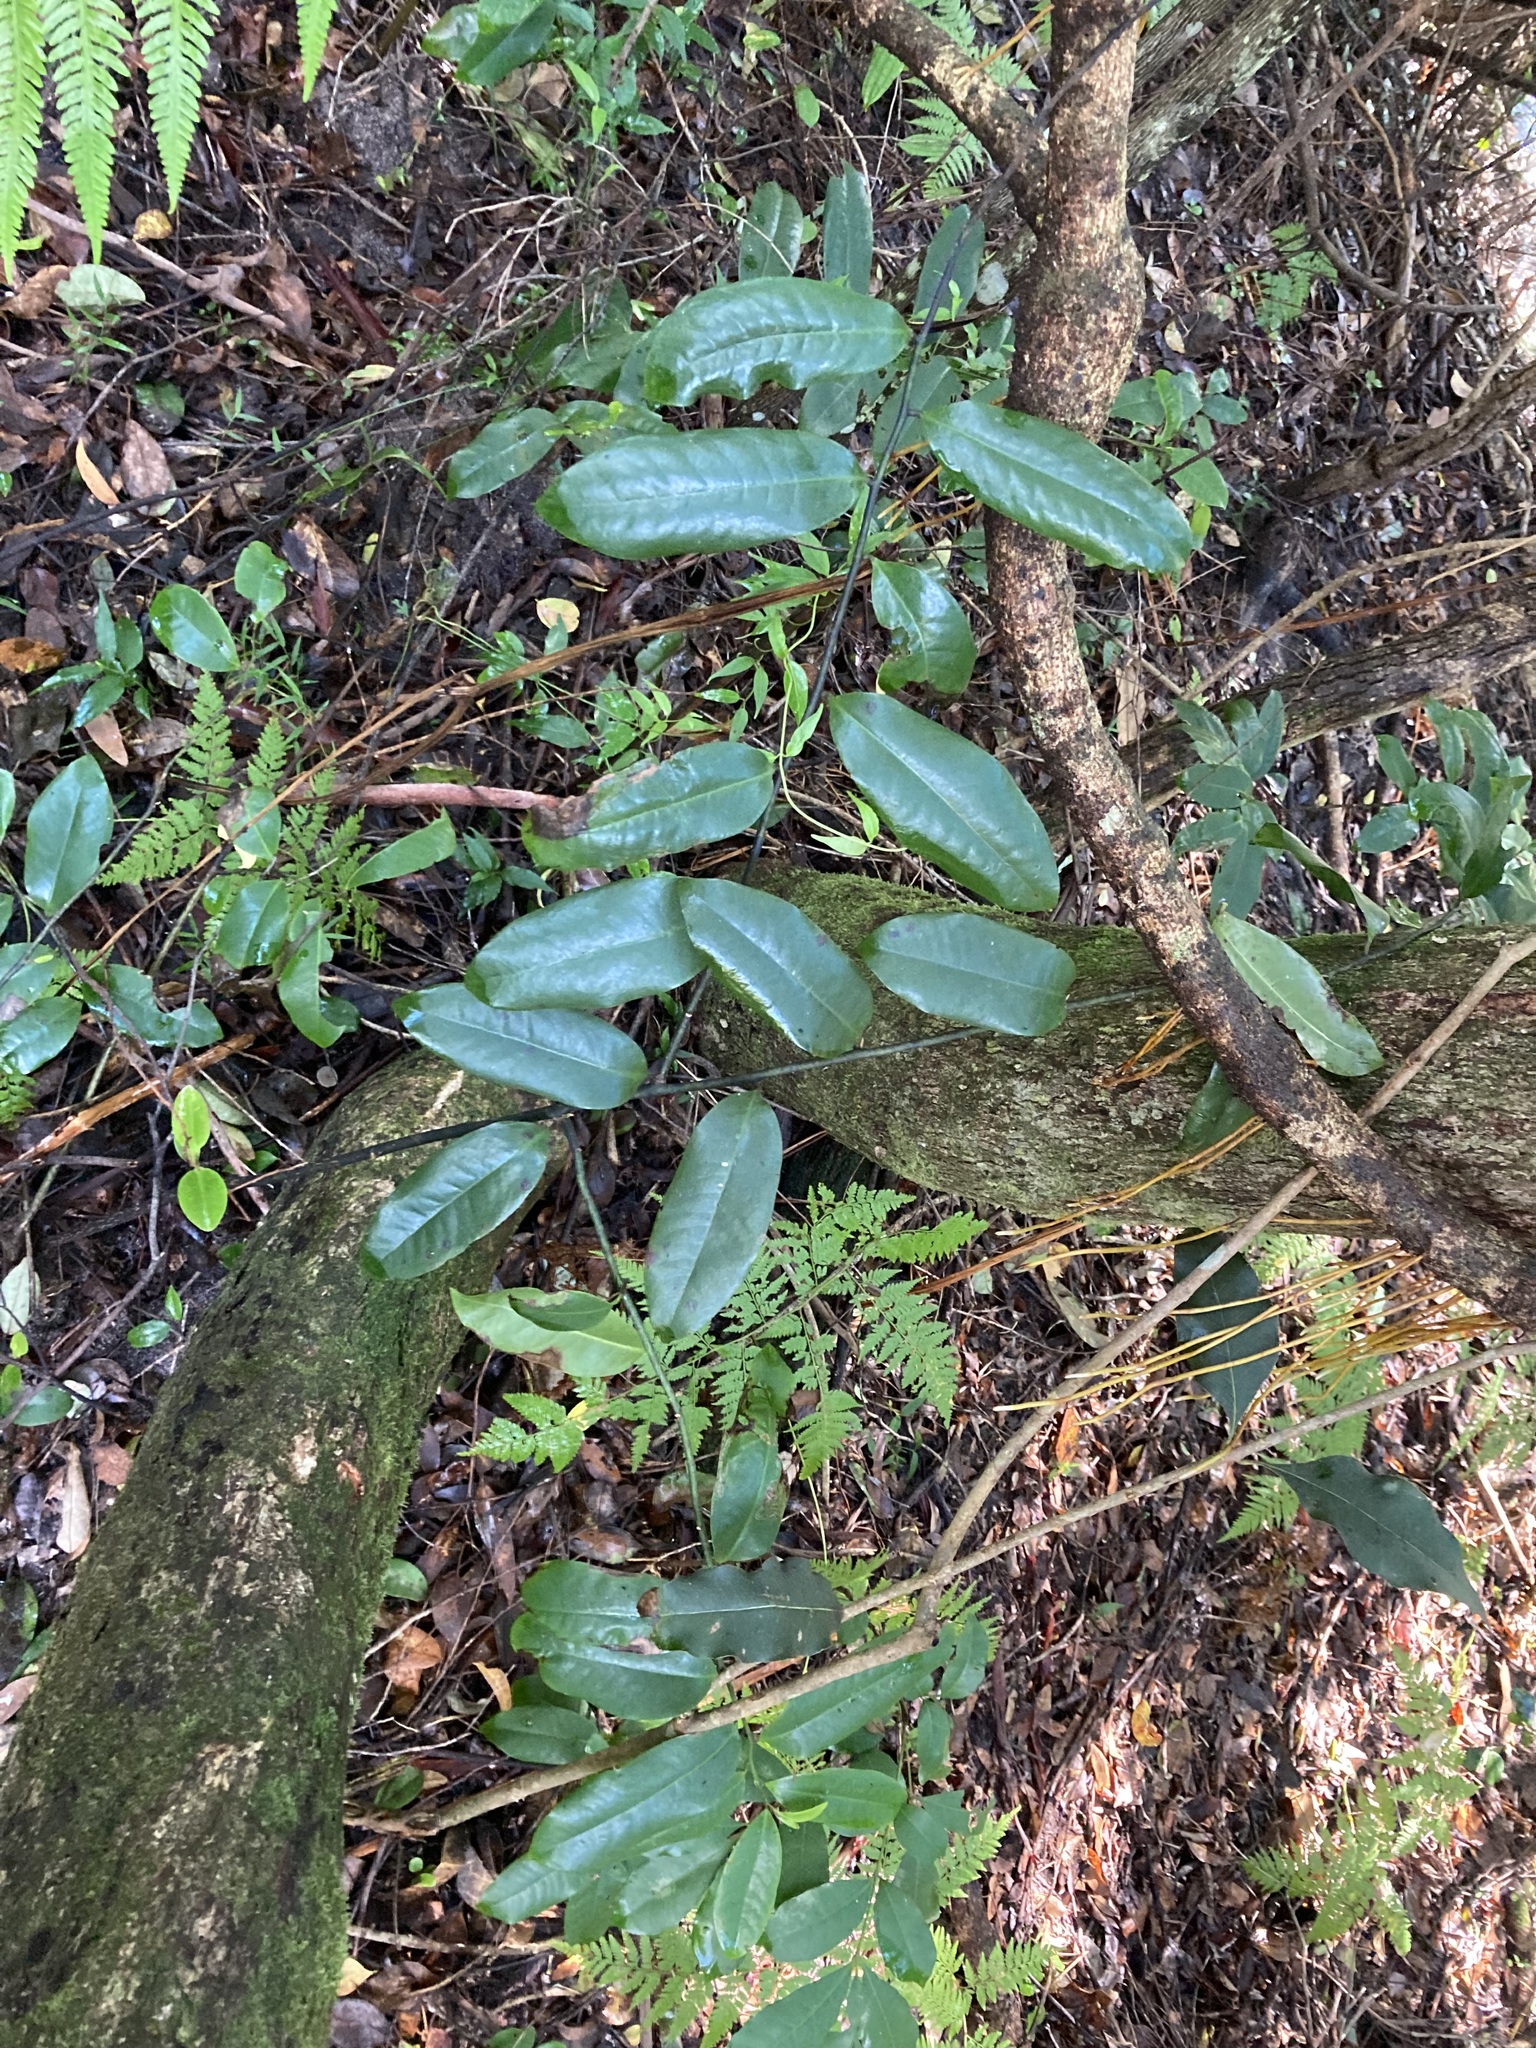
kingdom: Plantae
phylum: Tracheophyta
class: Magnoliopsida
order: Magnoliales
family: Eupomatiaceae
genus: Eupomatia
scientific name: Eupomatia laurina
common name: Bolwarra
